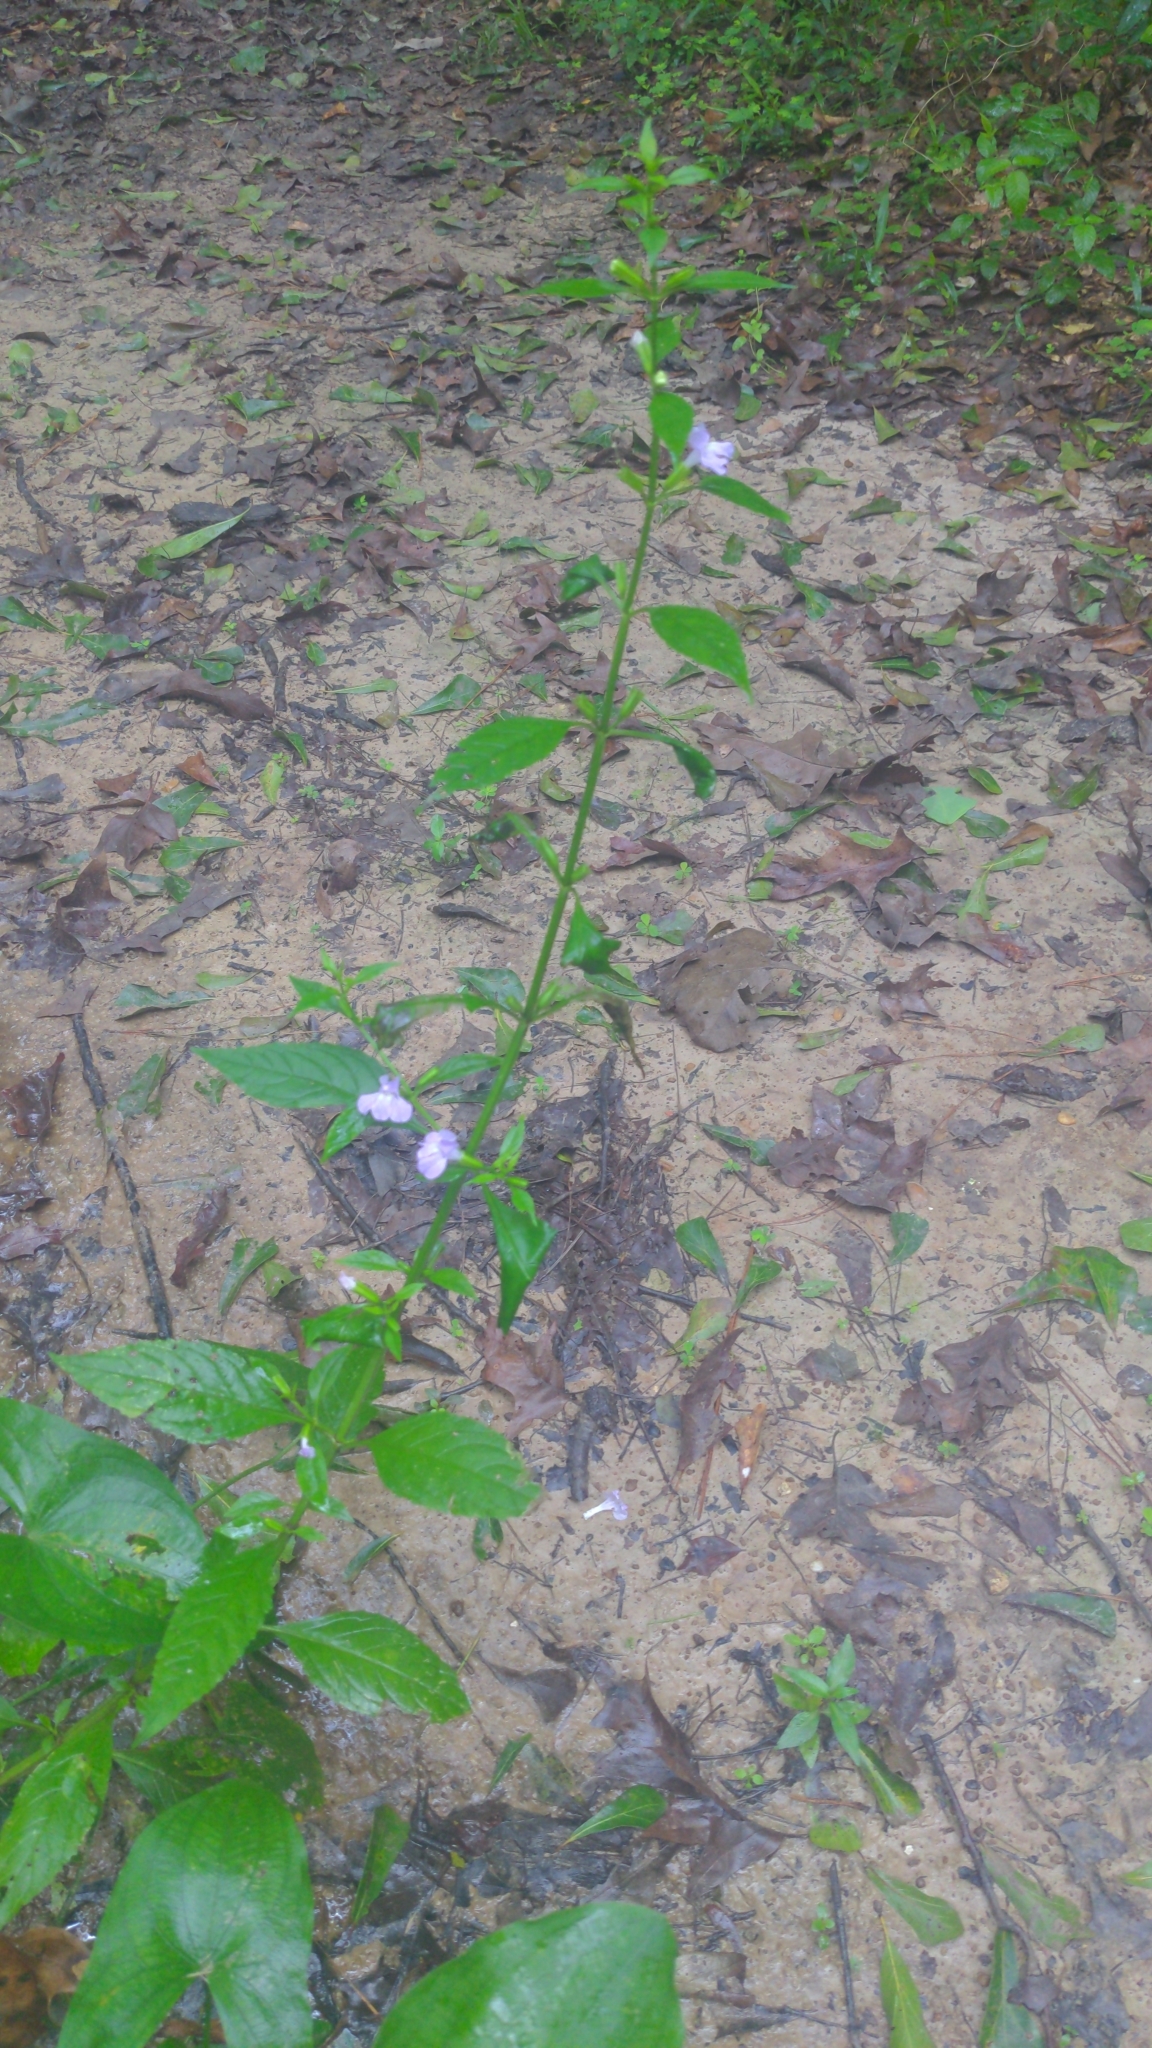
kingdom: Plantae
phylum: Tracheophyta
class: Magnoliopsida
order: Lamiales
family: Phrymaceae
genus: Mimulus
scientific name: Mimulus alatus
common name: Sharp-wing monkey-flower
